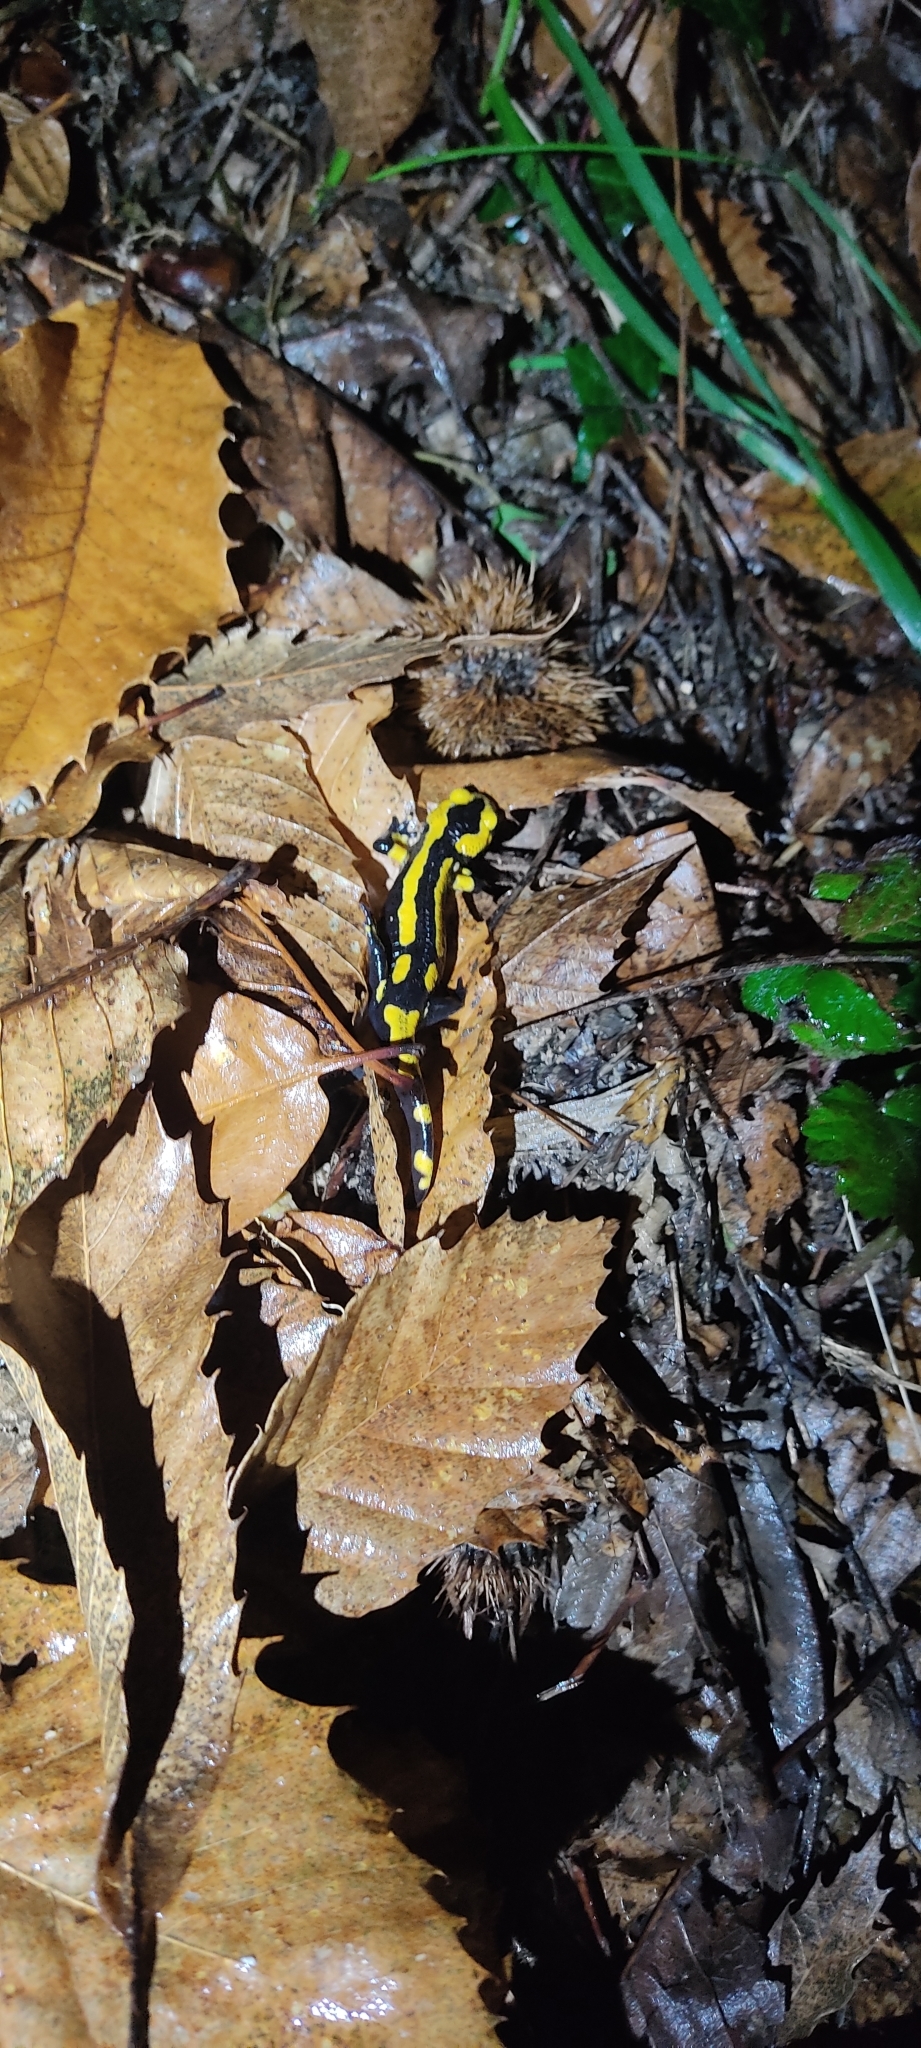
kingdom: Animalia
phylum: Chordata
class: Amphibia
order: Caudata
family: Salamandridae
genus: Salamandra
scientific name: Salamandra salamandra
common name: Fire salamander
